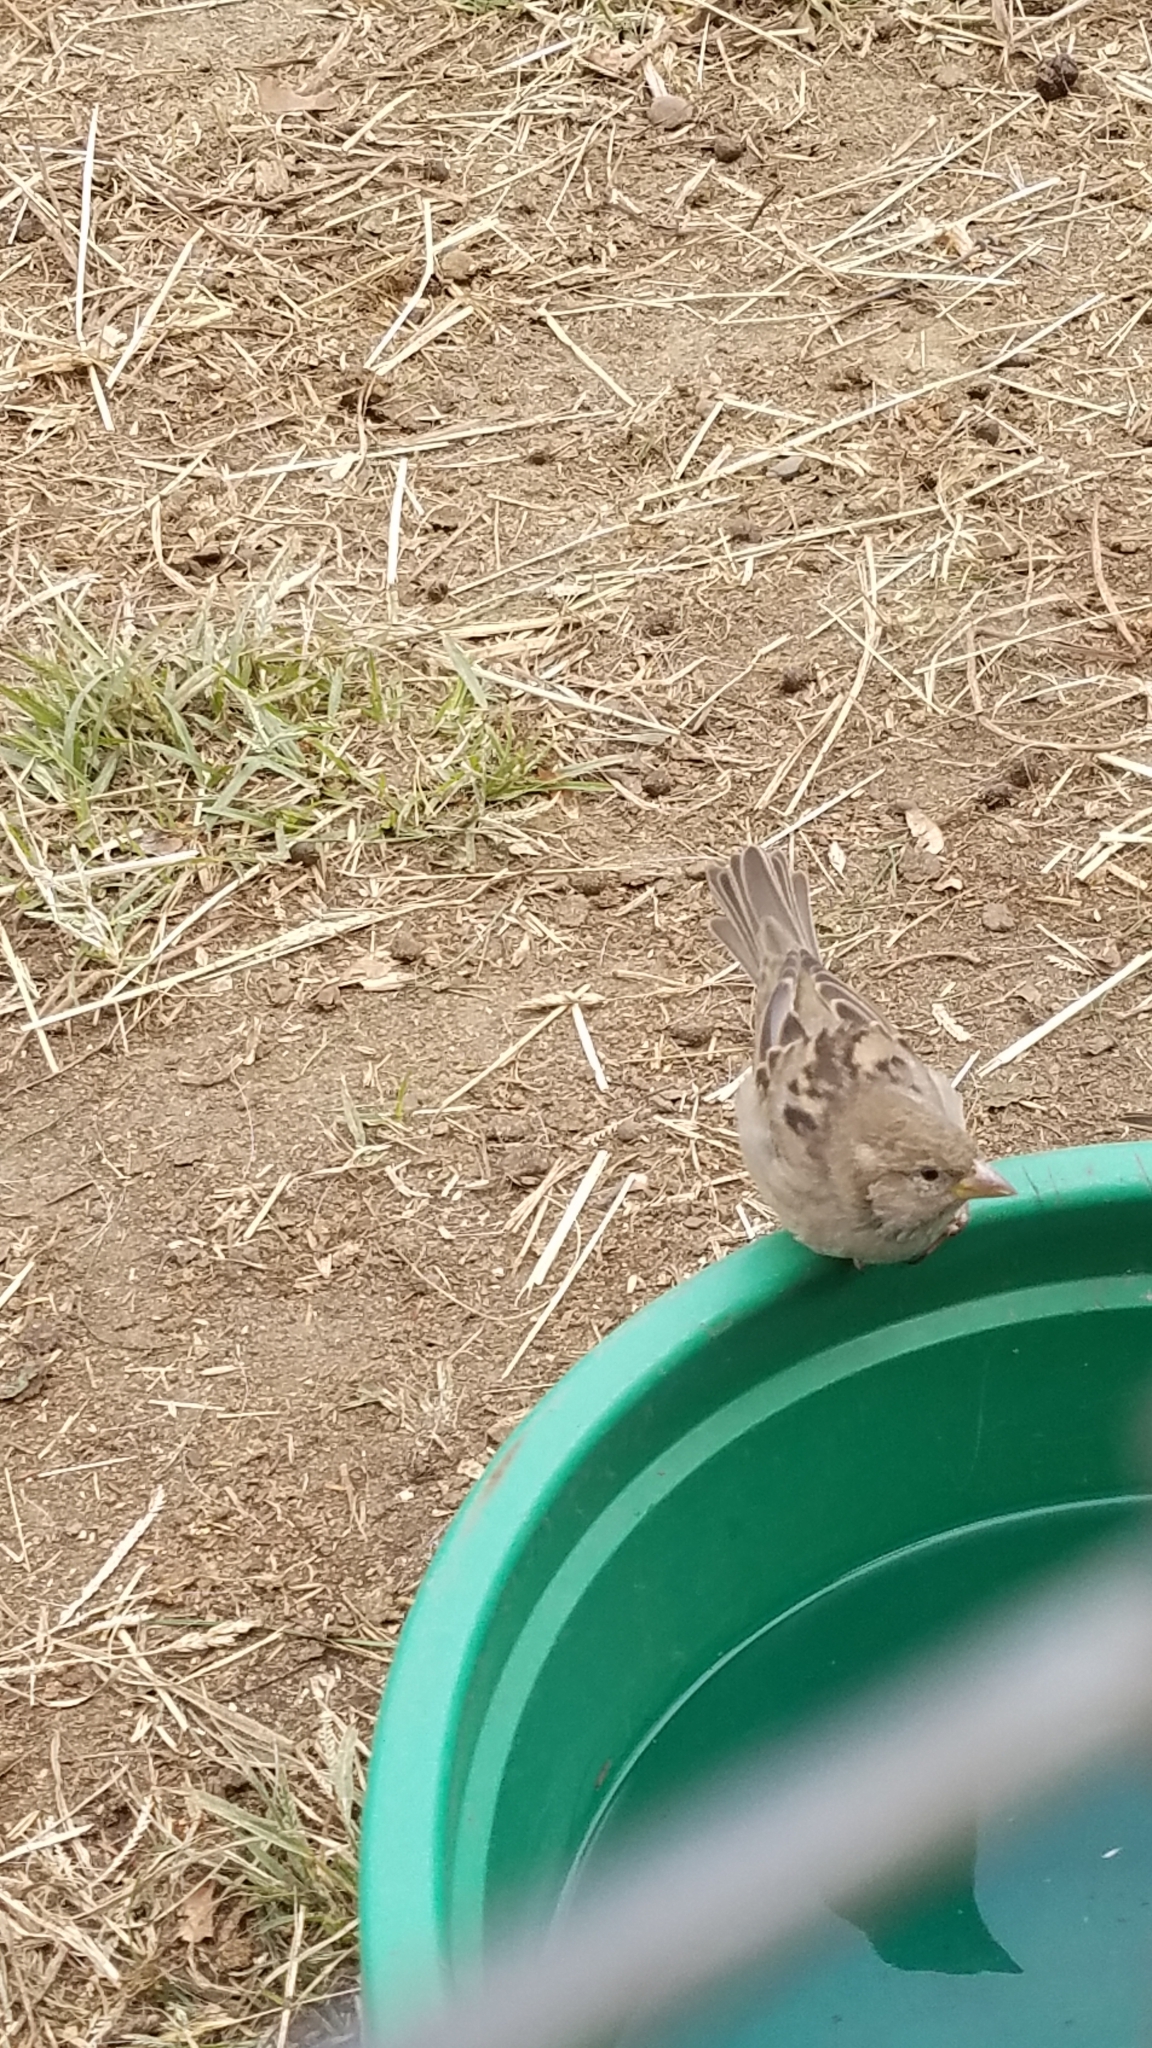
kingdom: Animalia
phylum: Chordata
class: Aves
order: Passeriformes
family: Passeridae
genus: Passer
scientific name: Passer domesticus
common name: House sparrow
